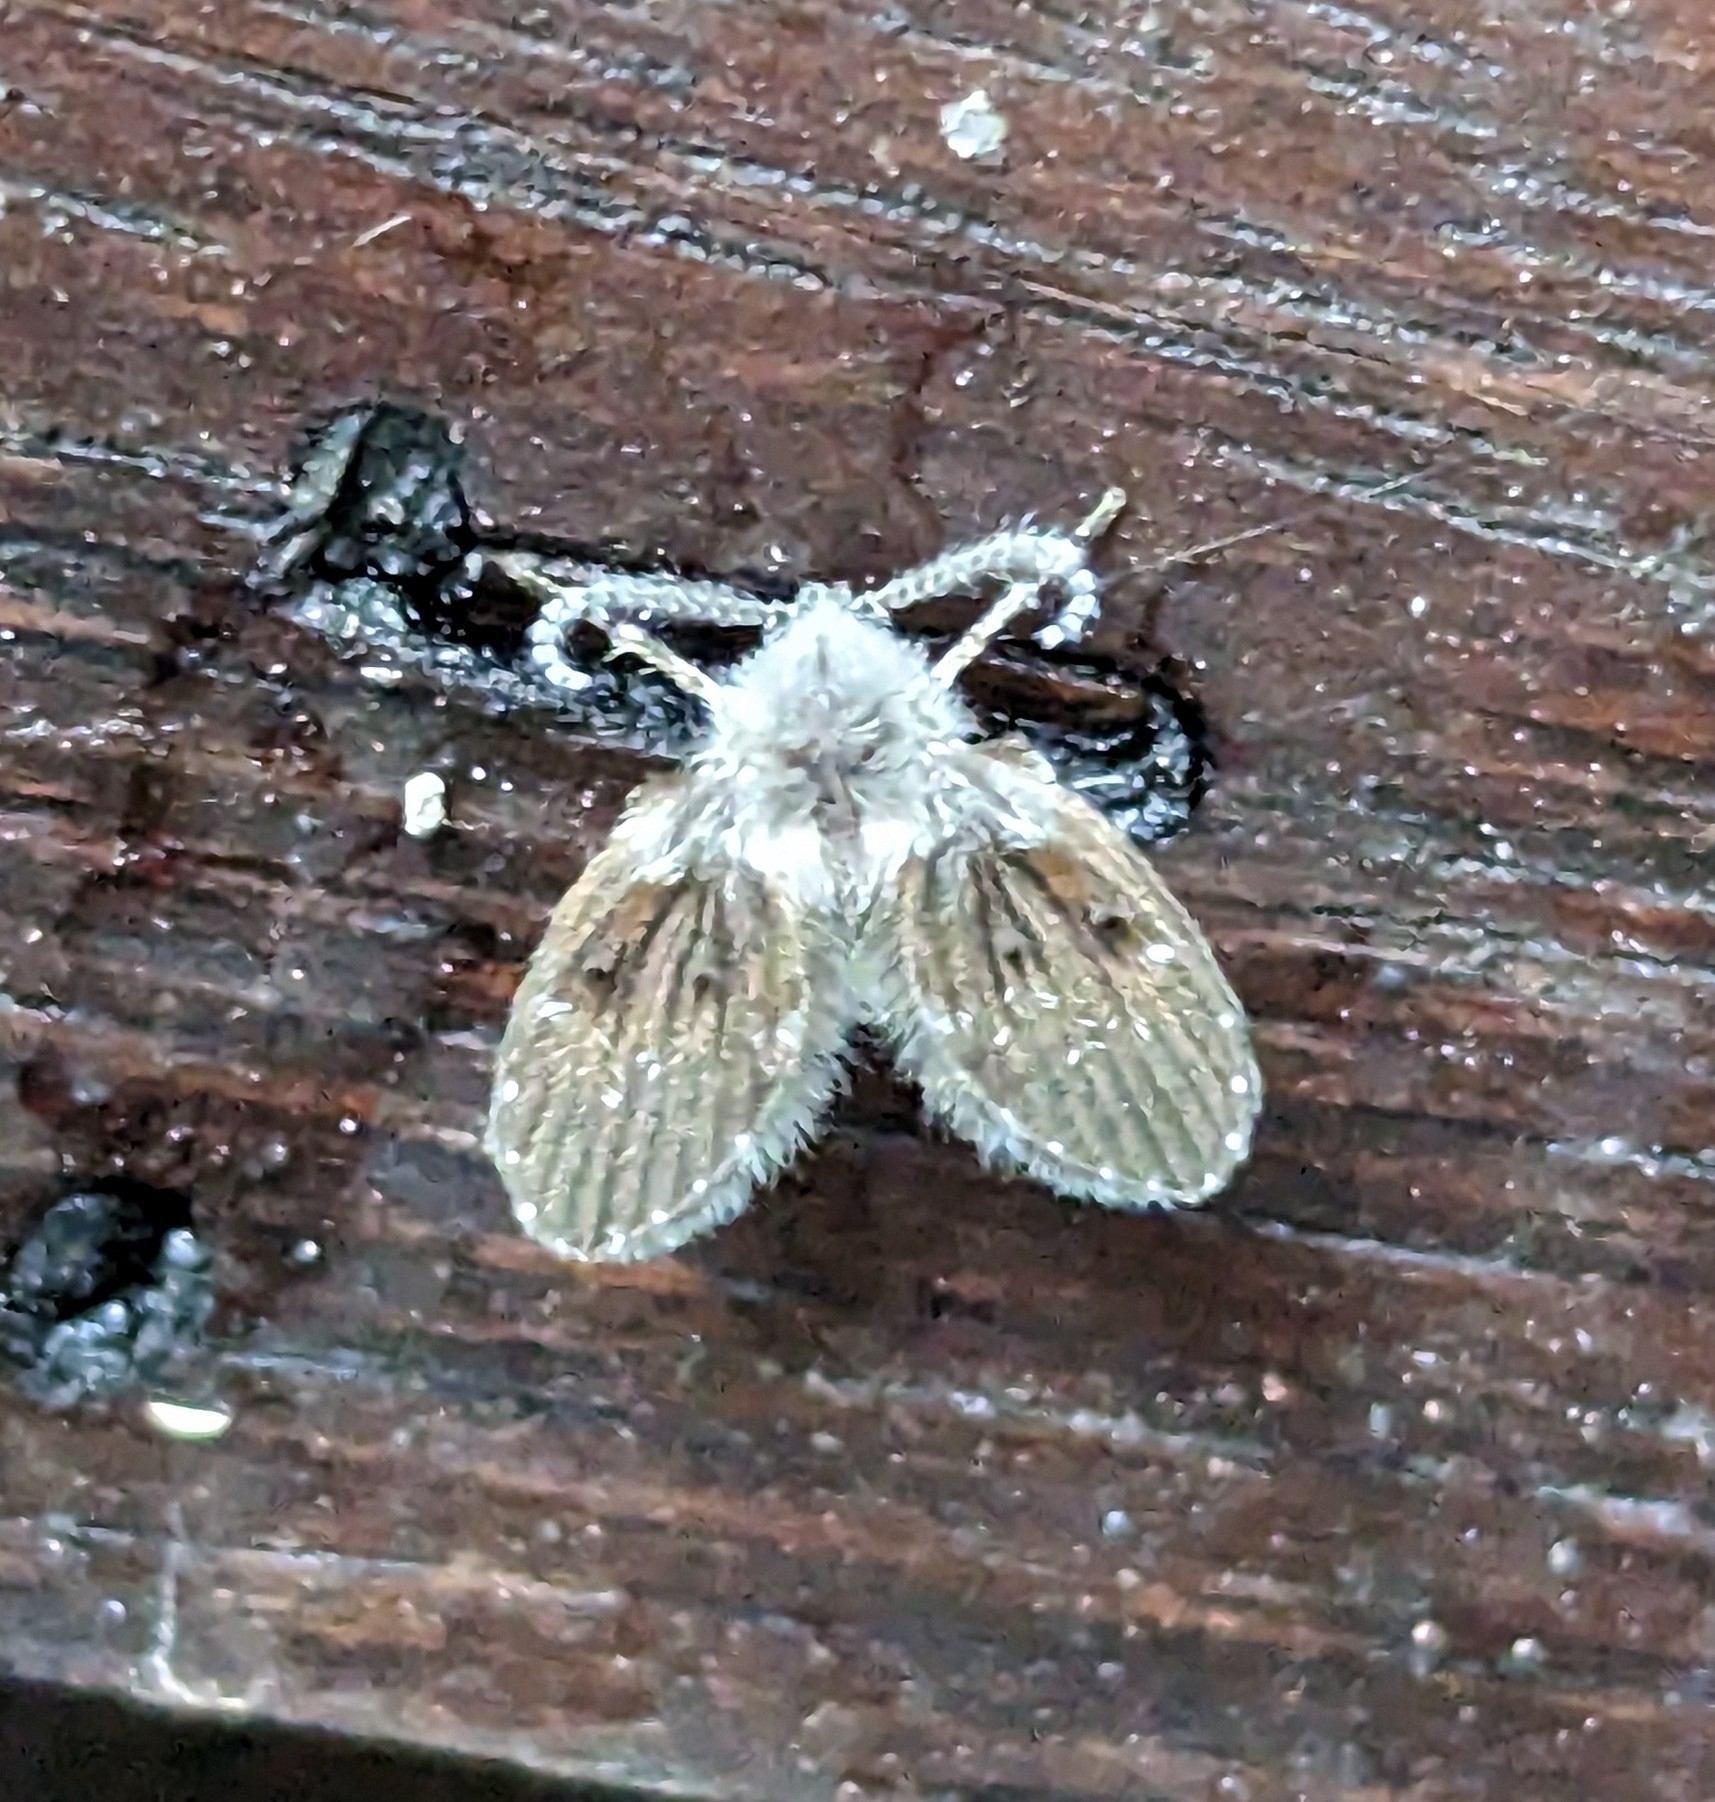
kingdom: Animalia
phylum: Arthropoda
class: Insecta
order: Diptera
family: Psychodidae
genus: Clogmia
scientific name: Clogmia albipunctatus
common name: White-spotted moth fly
